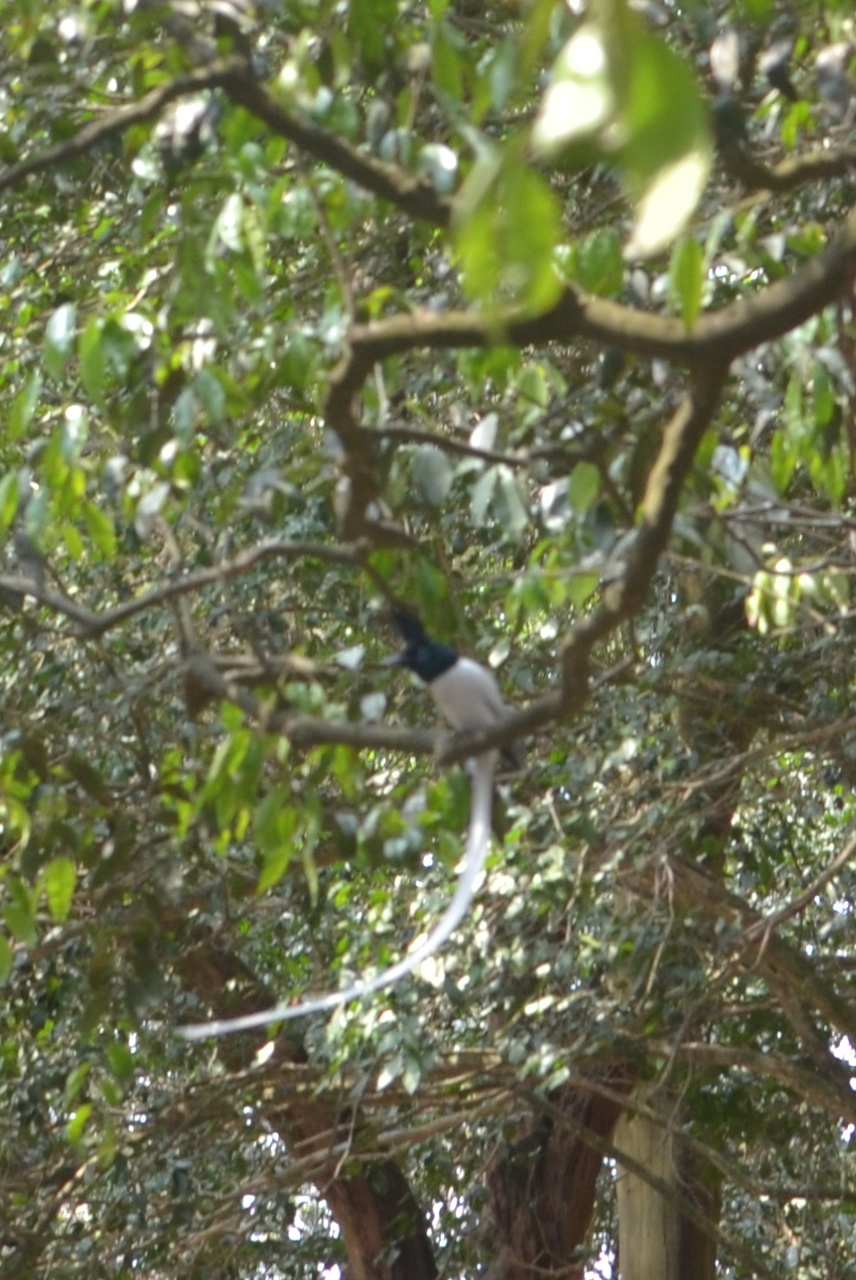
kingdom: Animalia
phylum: Chordata
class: Aves
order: Passeriformes
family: Monarchidae
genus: Terpsiphone
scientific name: Terpsiphone paradisi
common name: Indian paradise flycatcher
